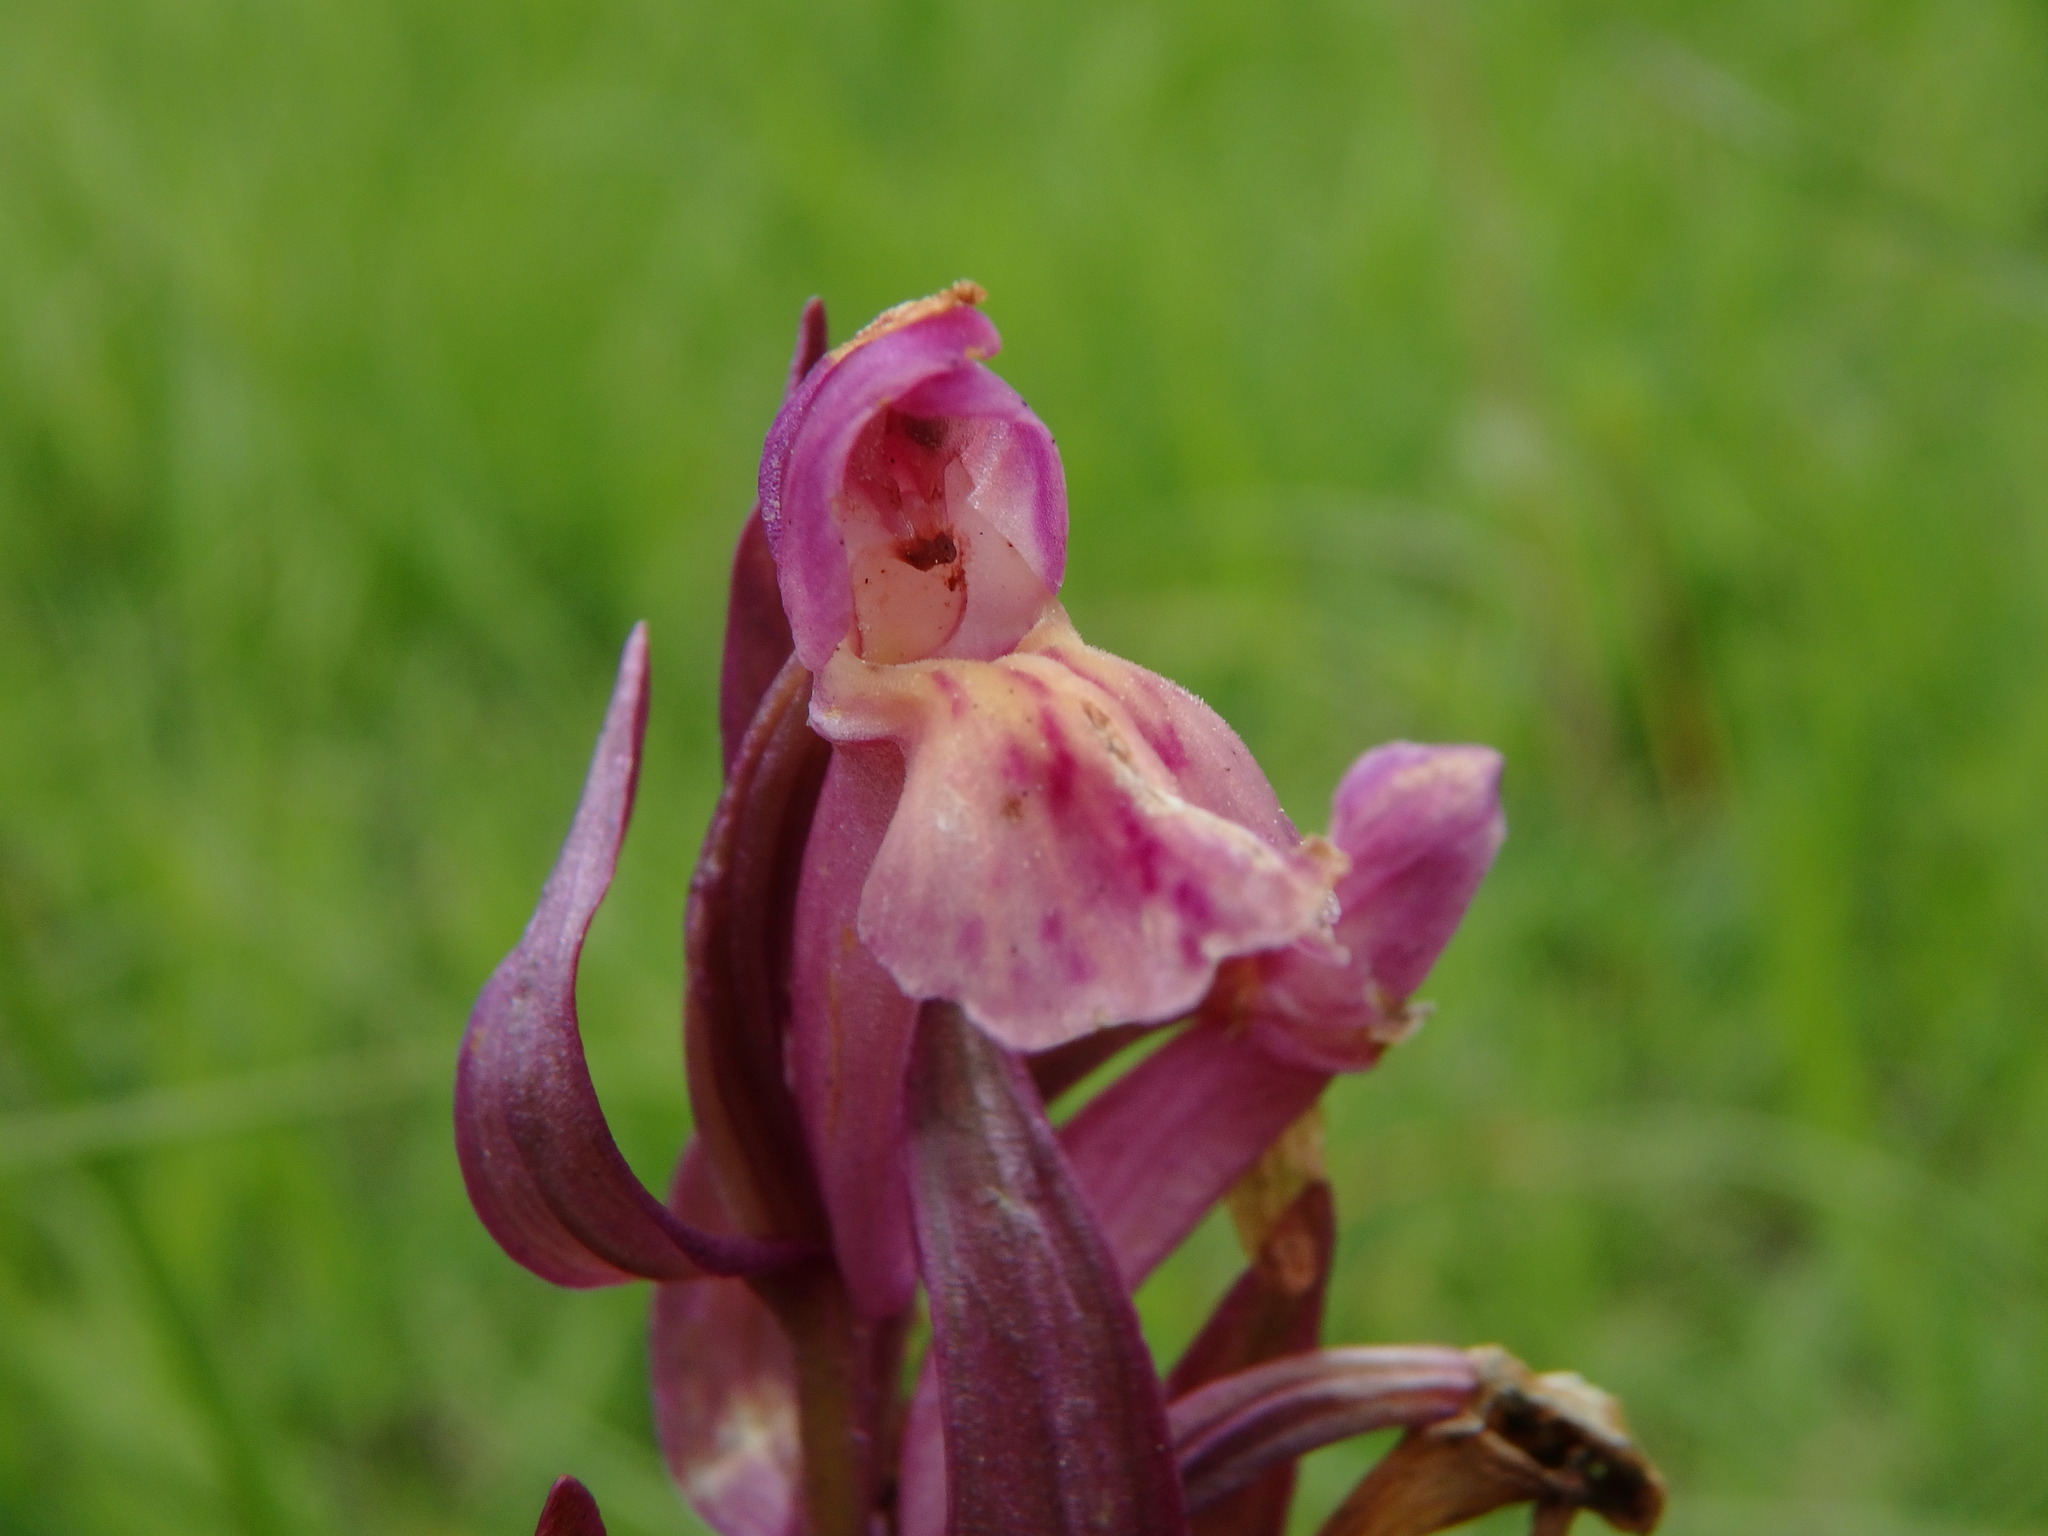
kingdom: Plantae
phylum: Tracheophyta
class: Liliopsida
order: Asparagales
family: Orchidaceae
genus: Dactylorhiza
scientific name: Dactylorhiza sambucina
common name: Elder-flowered orchid
